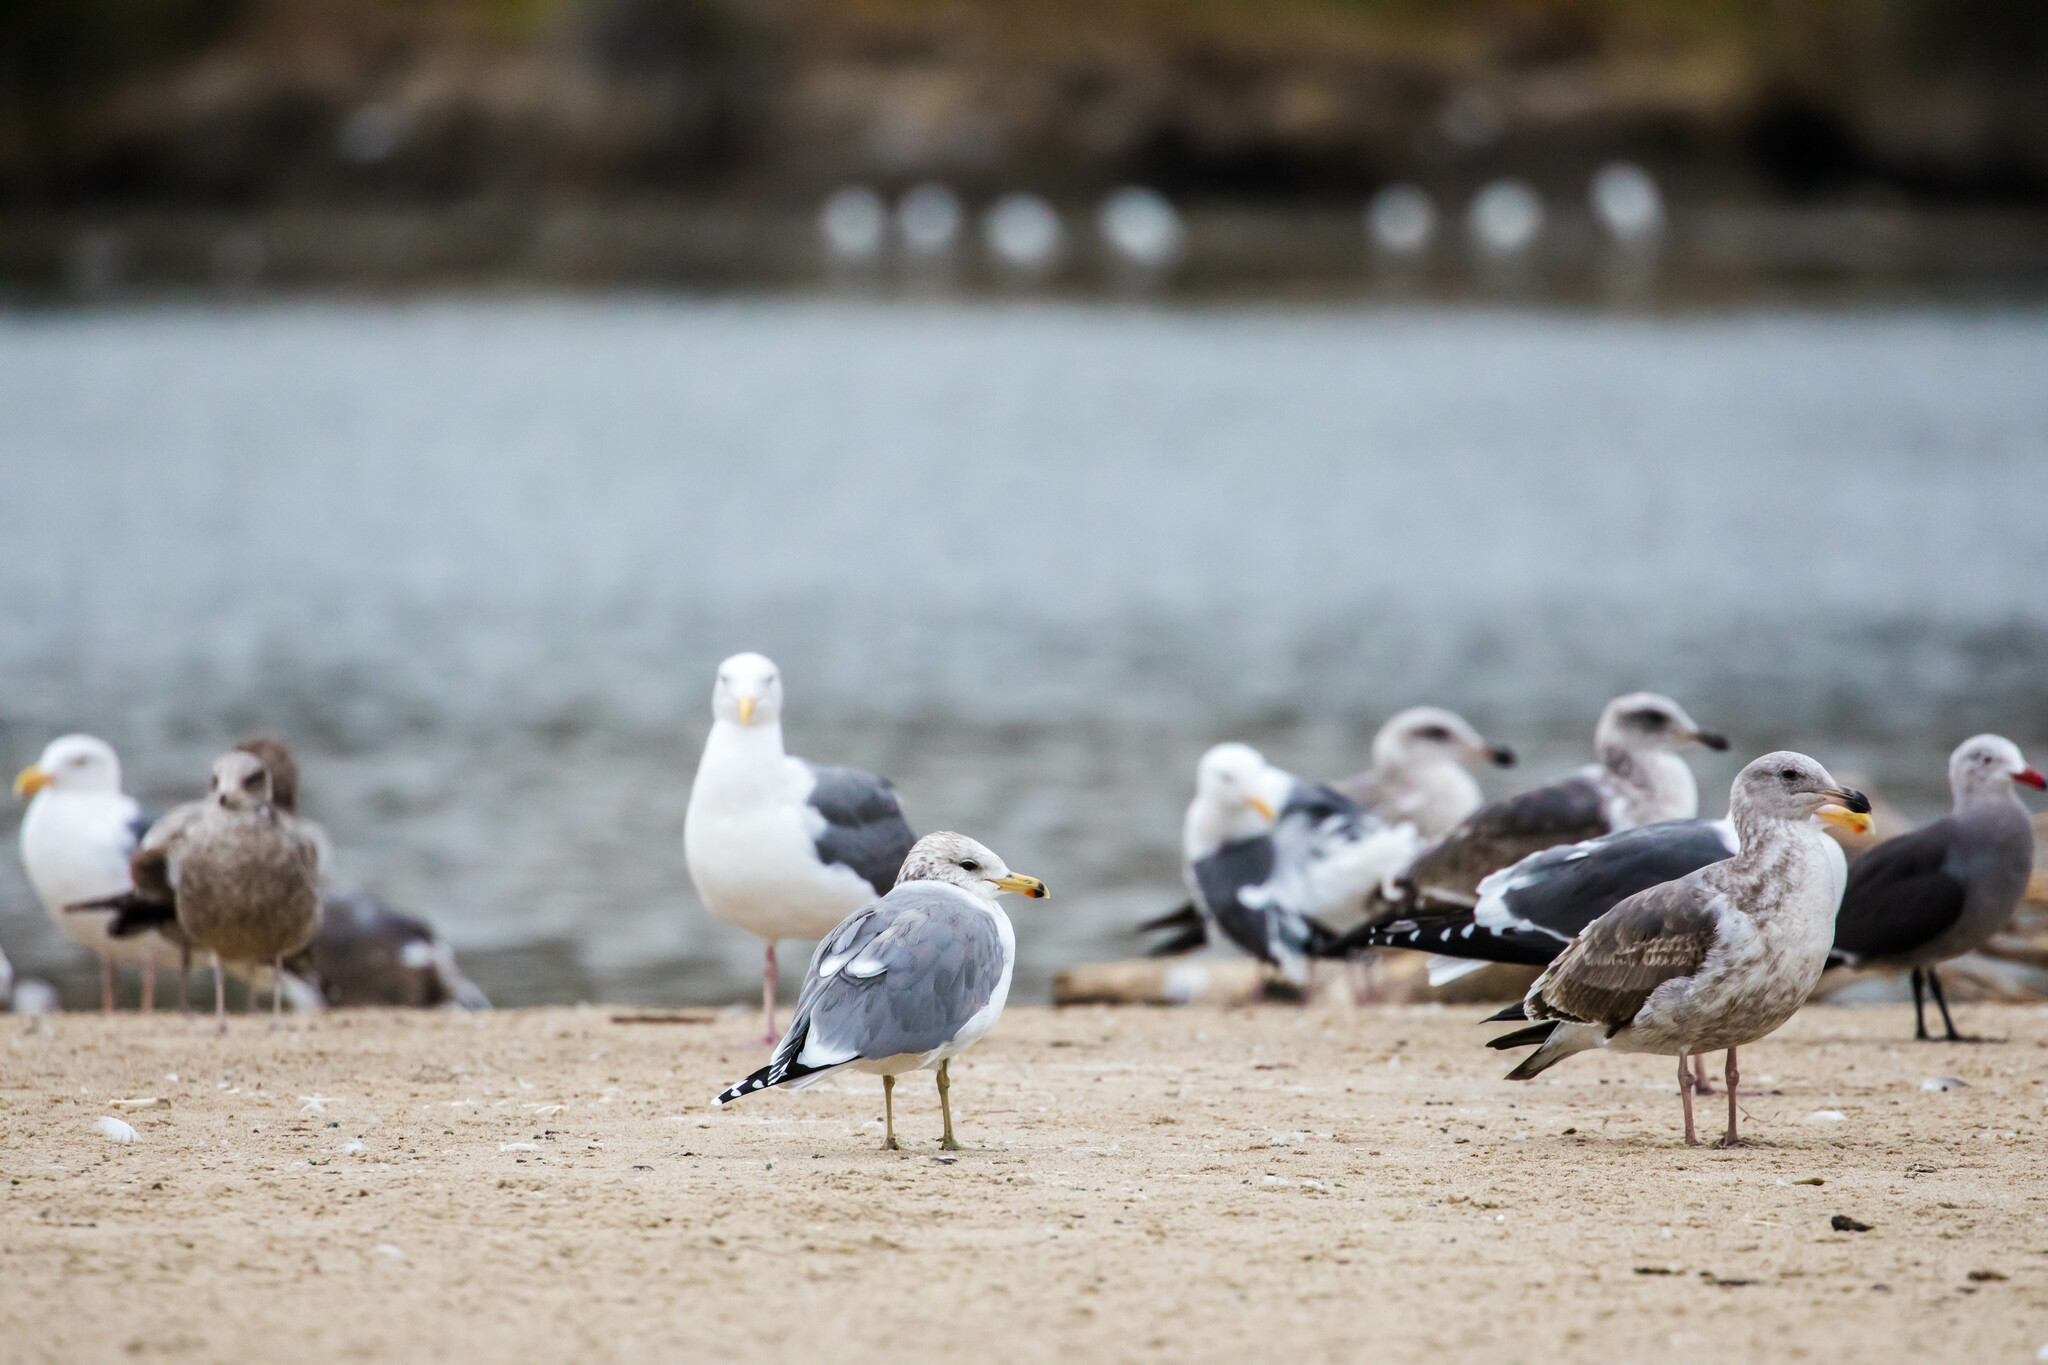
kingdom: Animalia
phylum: Chordata
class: Aves
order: Charadriiformes
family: Laridae
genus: Larus
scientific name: Larus californicus
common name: California gull
